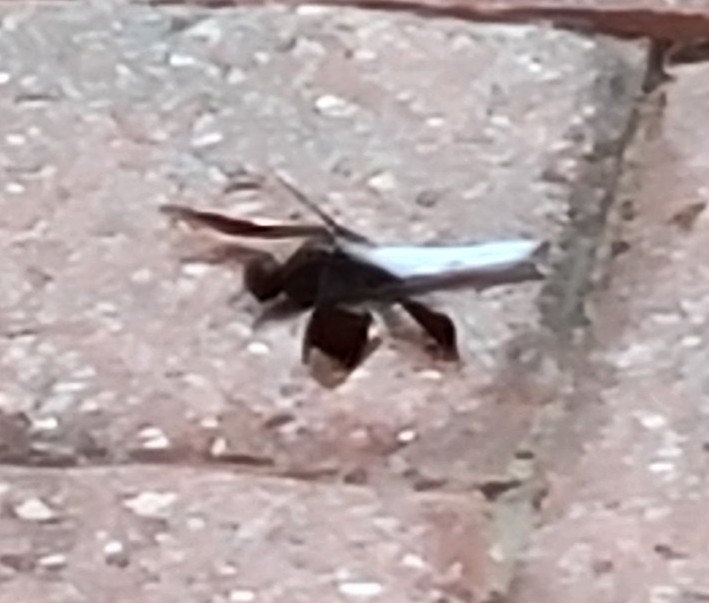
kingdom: Animalia
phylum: Arthropoda
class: Insecta
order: Odonata
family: Libellulidae
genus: Plathemis
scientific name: Plathemis lydia
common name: Common whitetail
